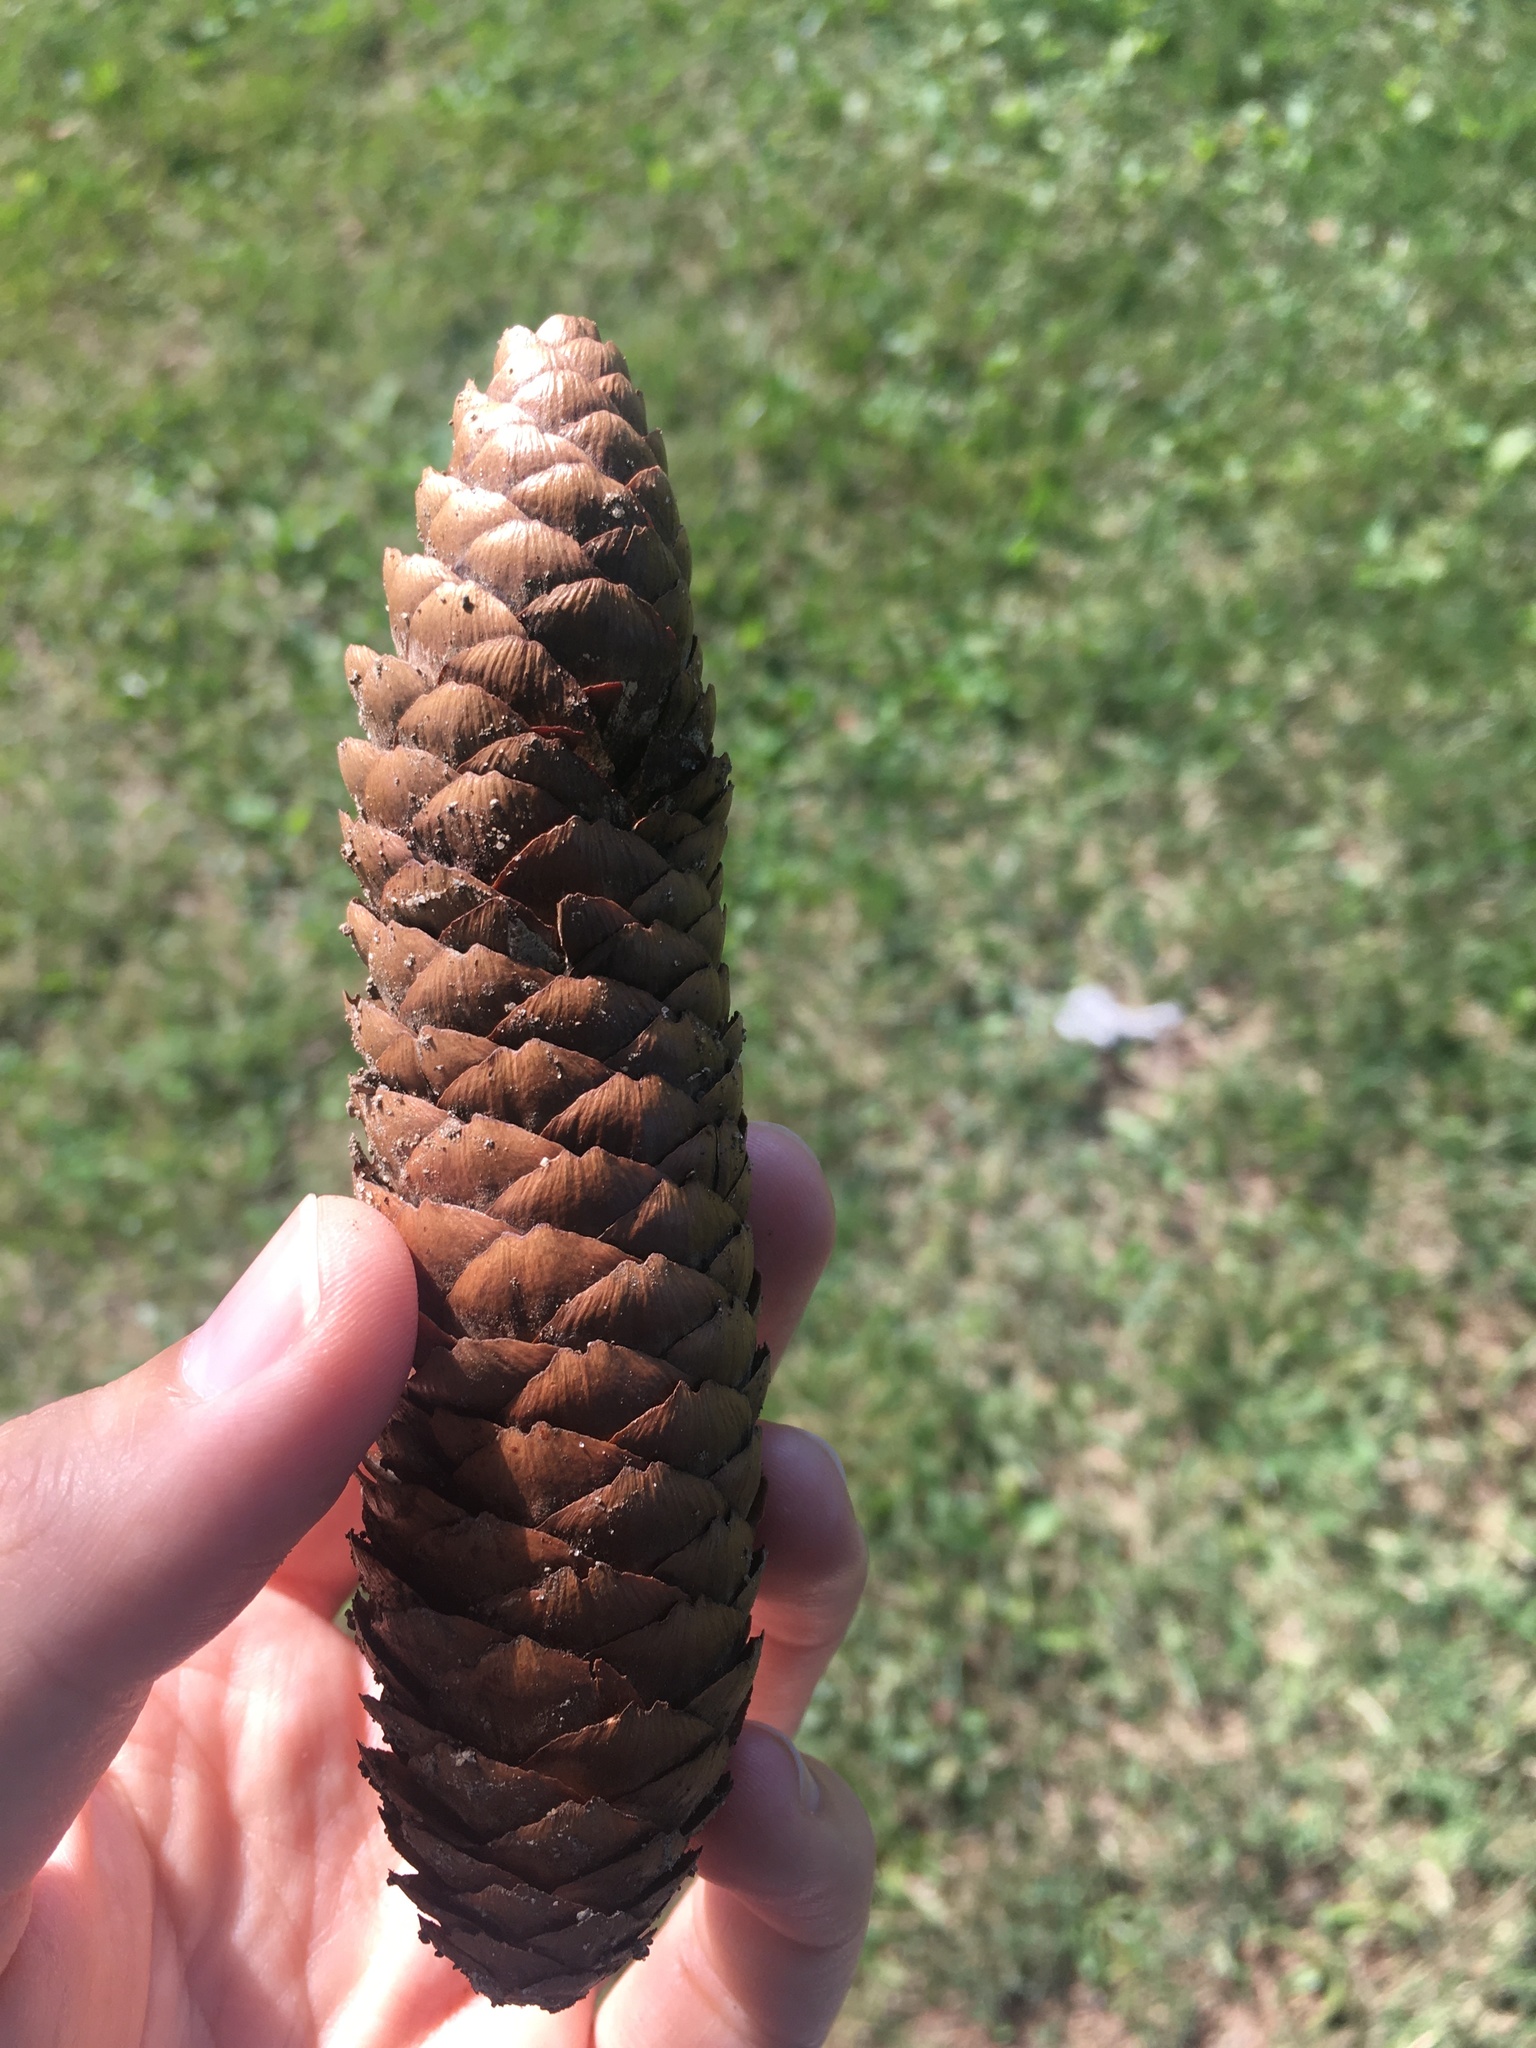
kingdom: Plantae
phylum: Tracheophyta
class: Pinopsida
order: Pinales
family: Pinaceae
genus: Picea
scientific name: Picea abies
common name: Norway spruce
